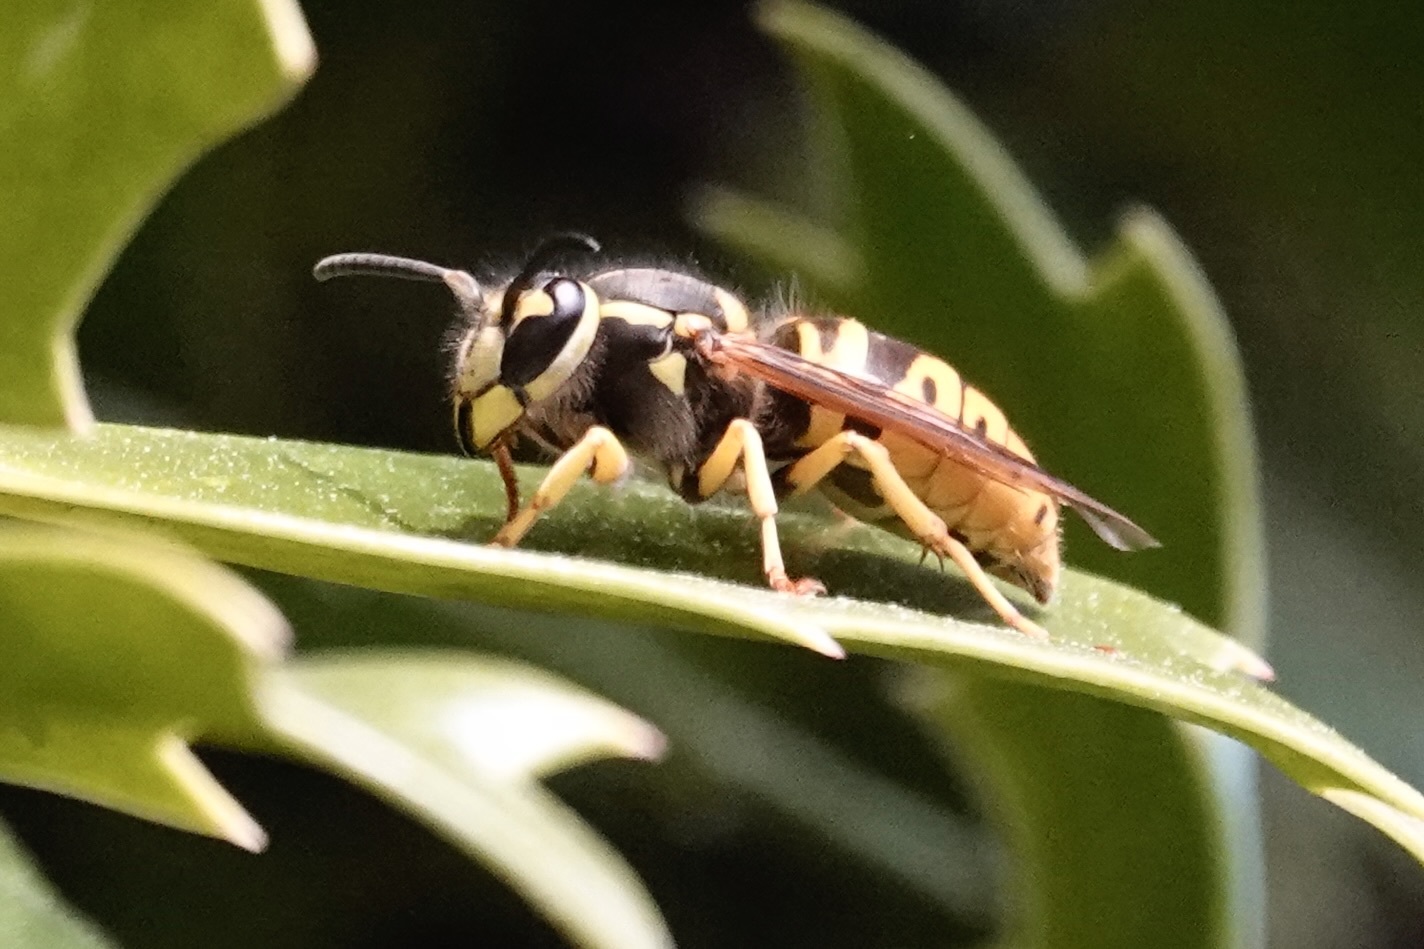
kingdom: Animalia
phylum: Arthropoda
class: Insecta
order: Hymenoptera
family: Vespidae
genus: Vespula
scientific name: Vespula maculifrons
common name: Eastern yellowjacket
